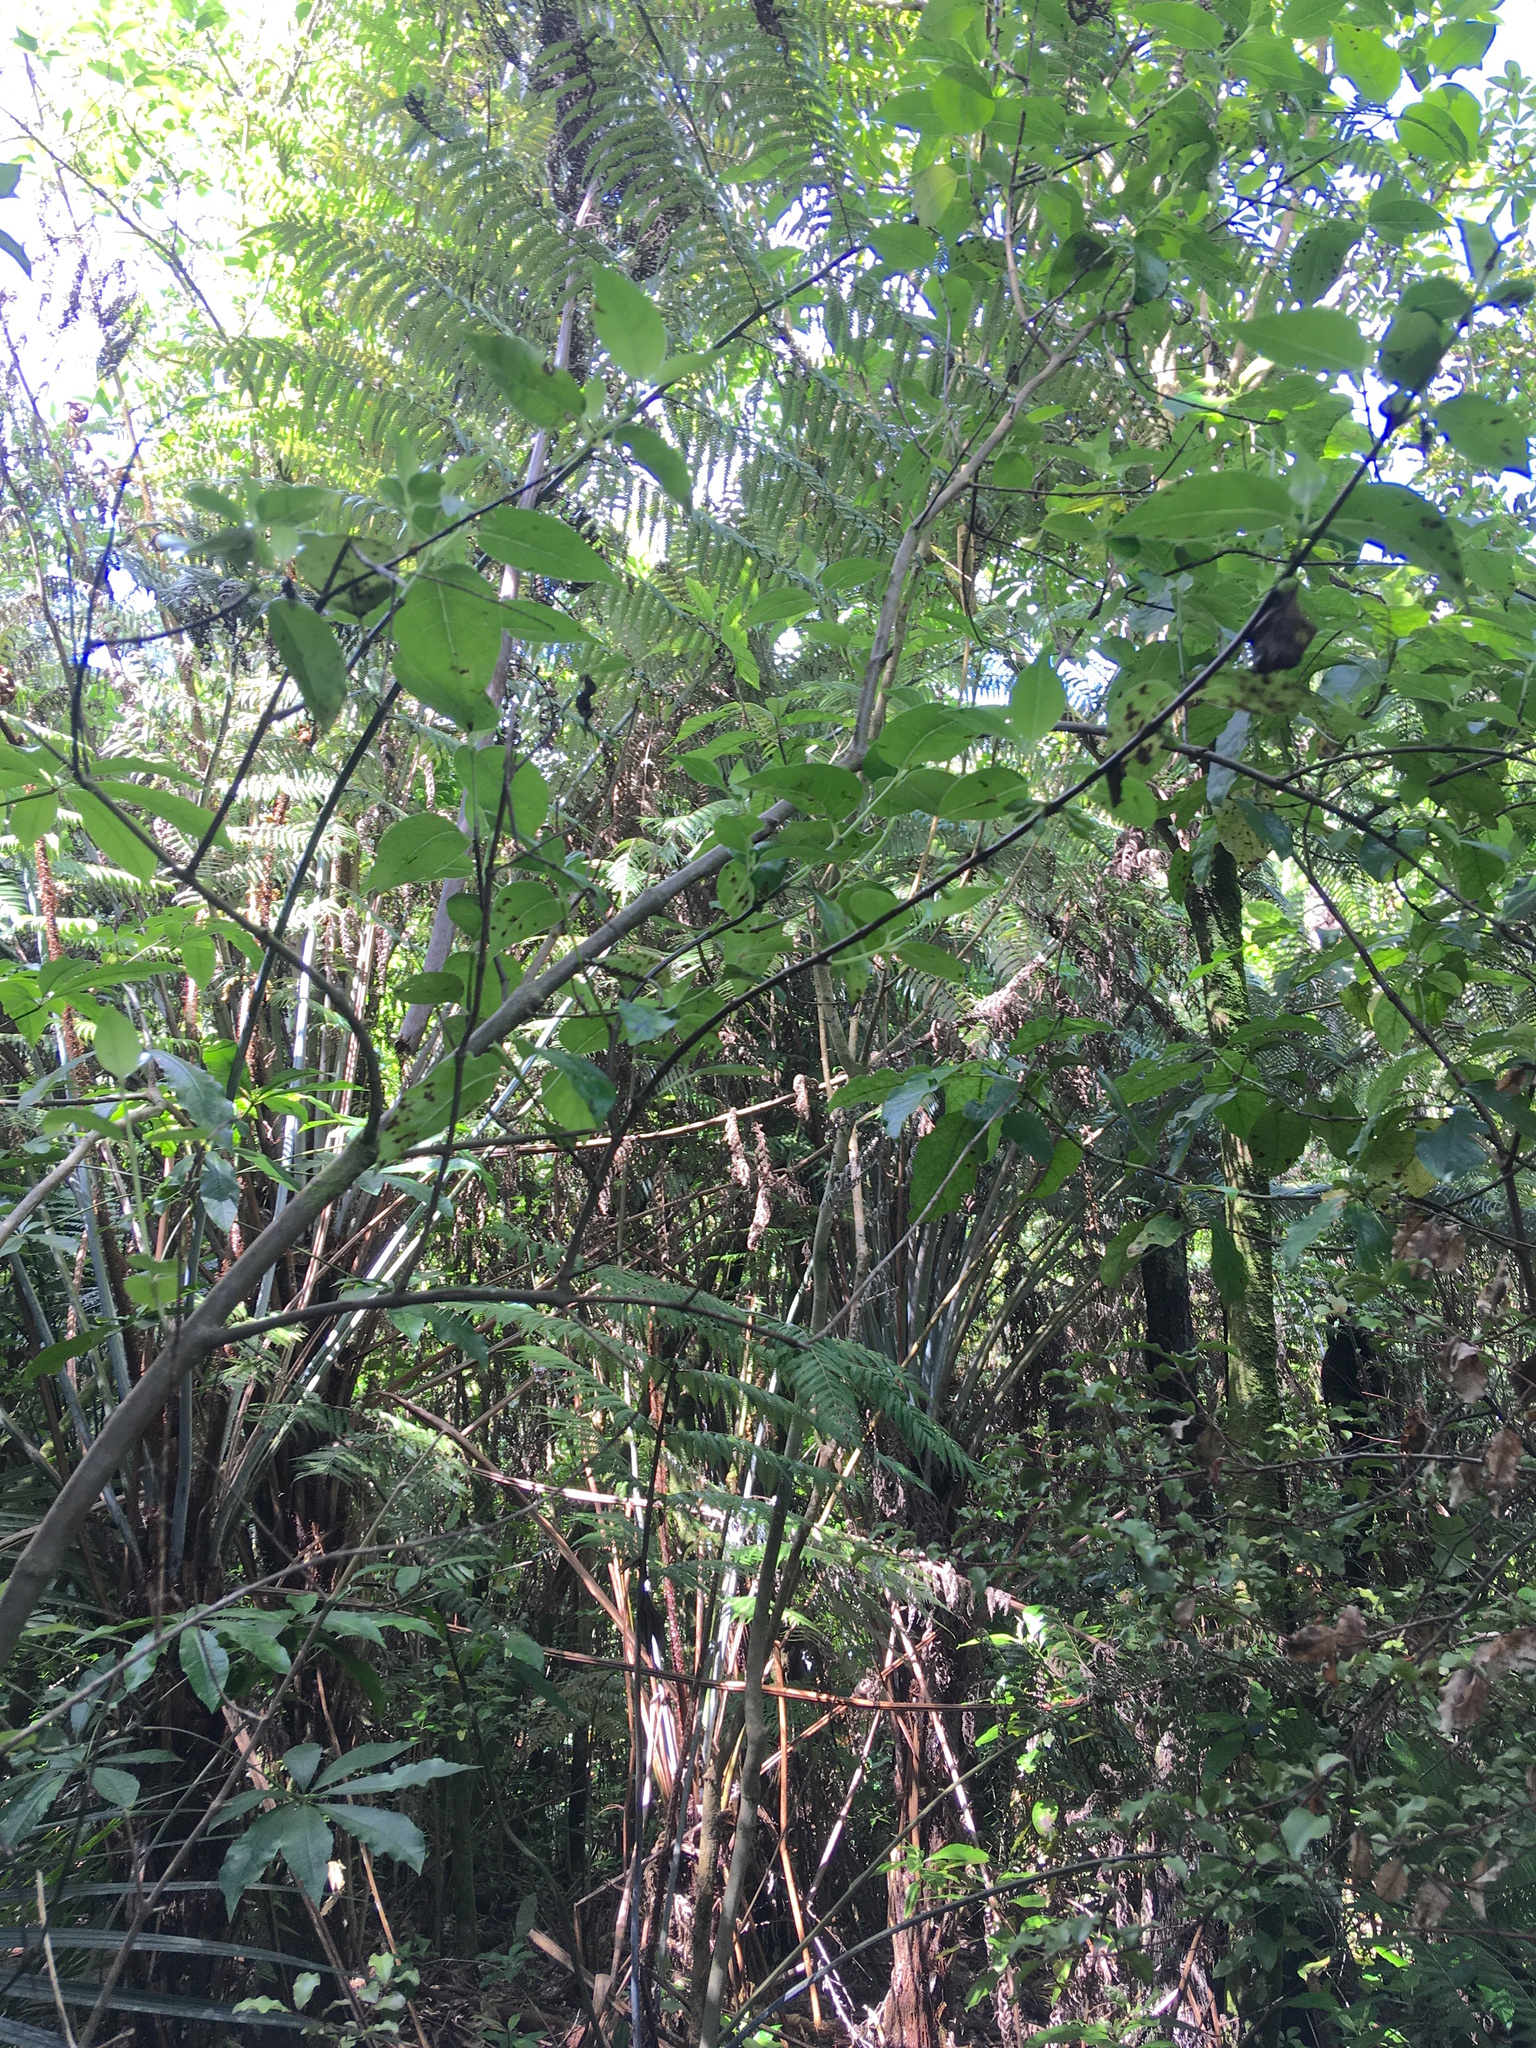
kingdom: Plantae
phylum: Tracheophyta
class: Magnoliopsida
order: Gentianales
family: Loganiaceae
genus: Geniostoma
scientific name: Geniostoma ligustrifolium
